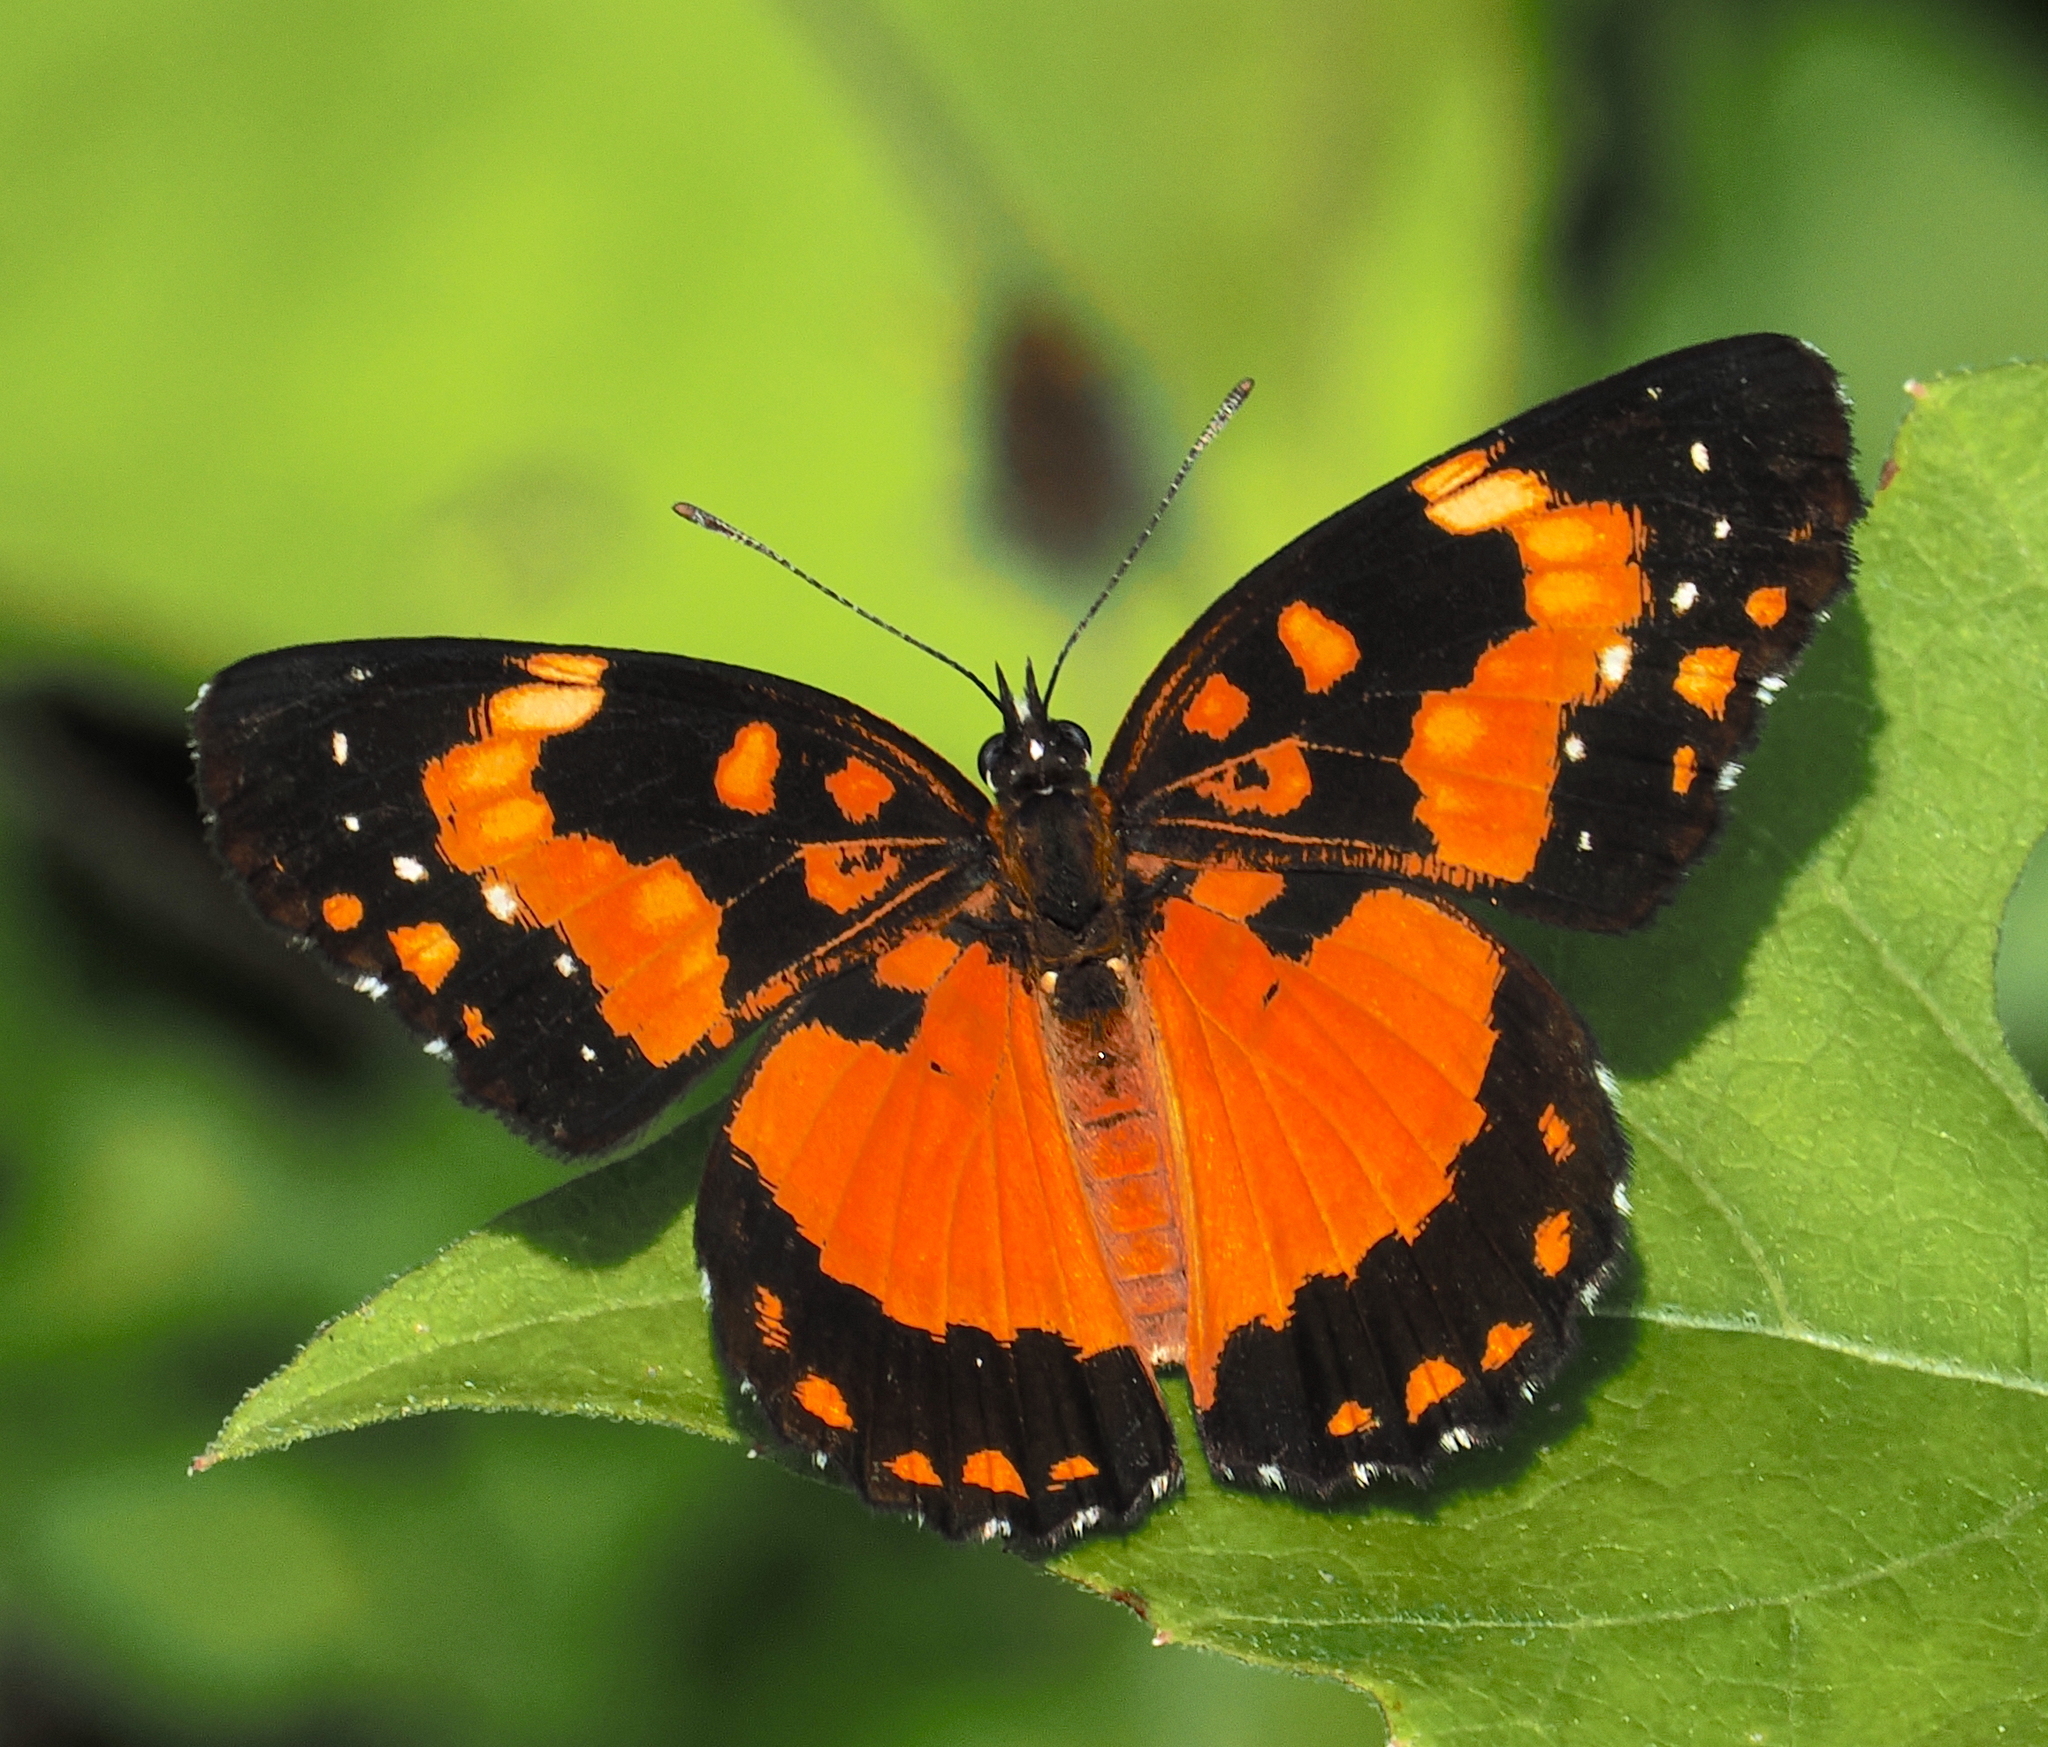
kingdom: Animalia
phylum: Arthropoda
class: Insecta
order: Lepidoptera
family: Nymphalidae
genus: Chlosyne
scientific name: Chlosyne lacinia
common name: Bordered patch
